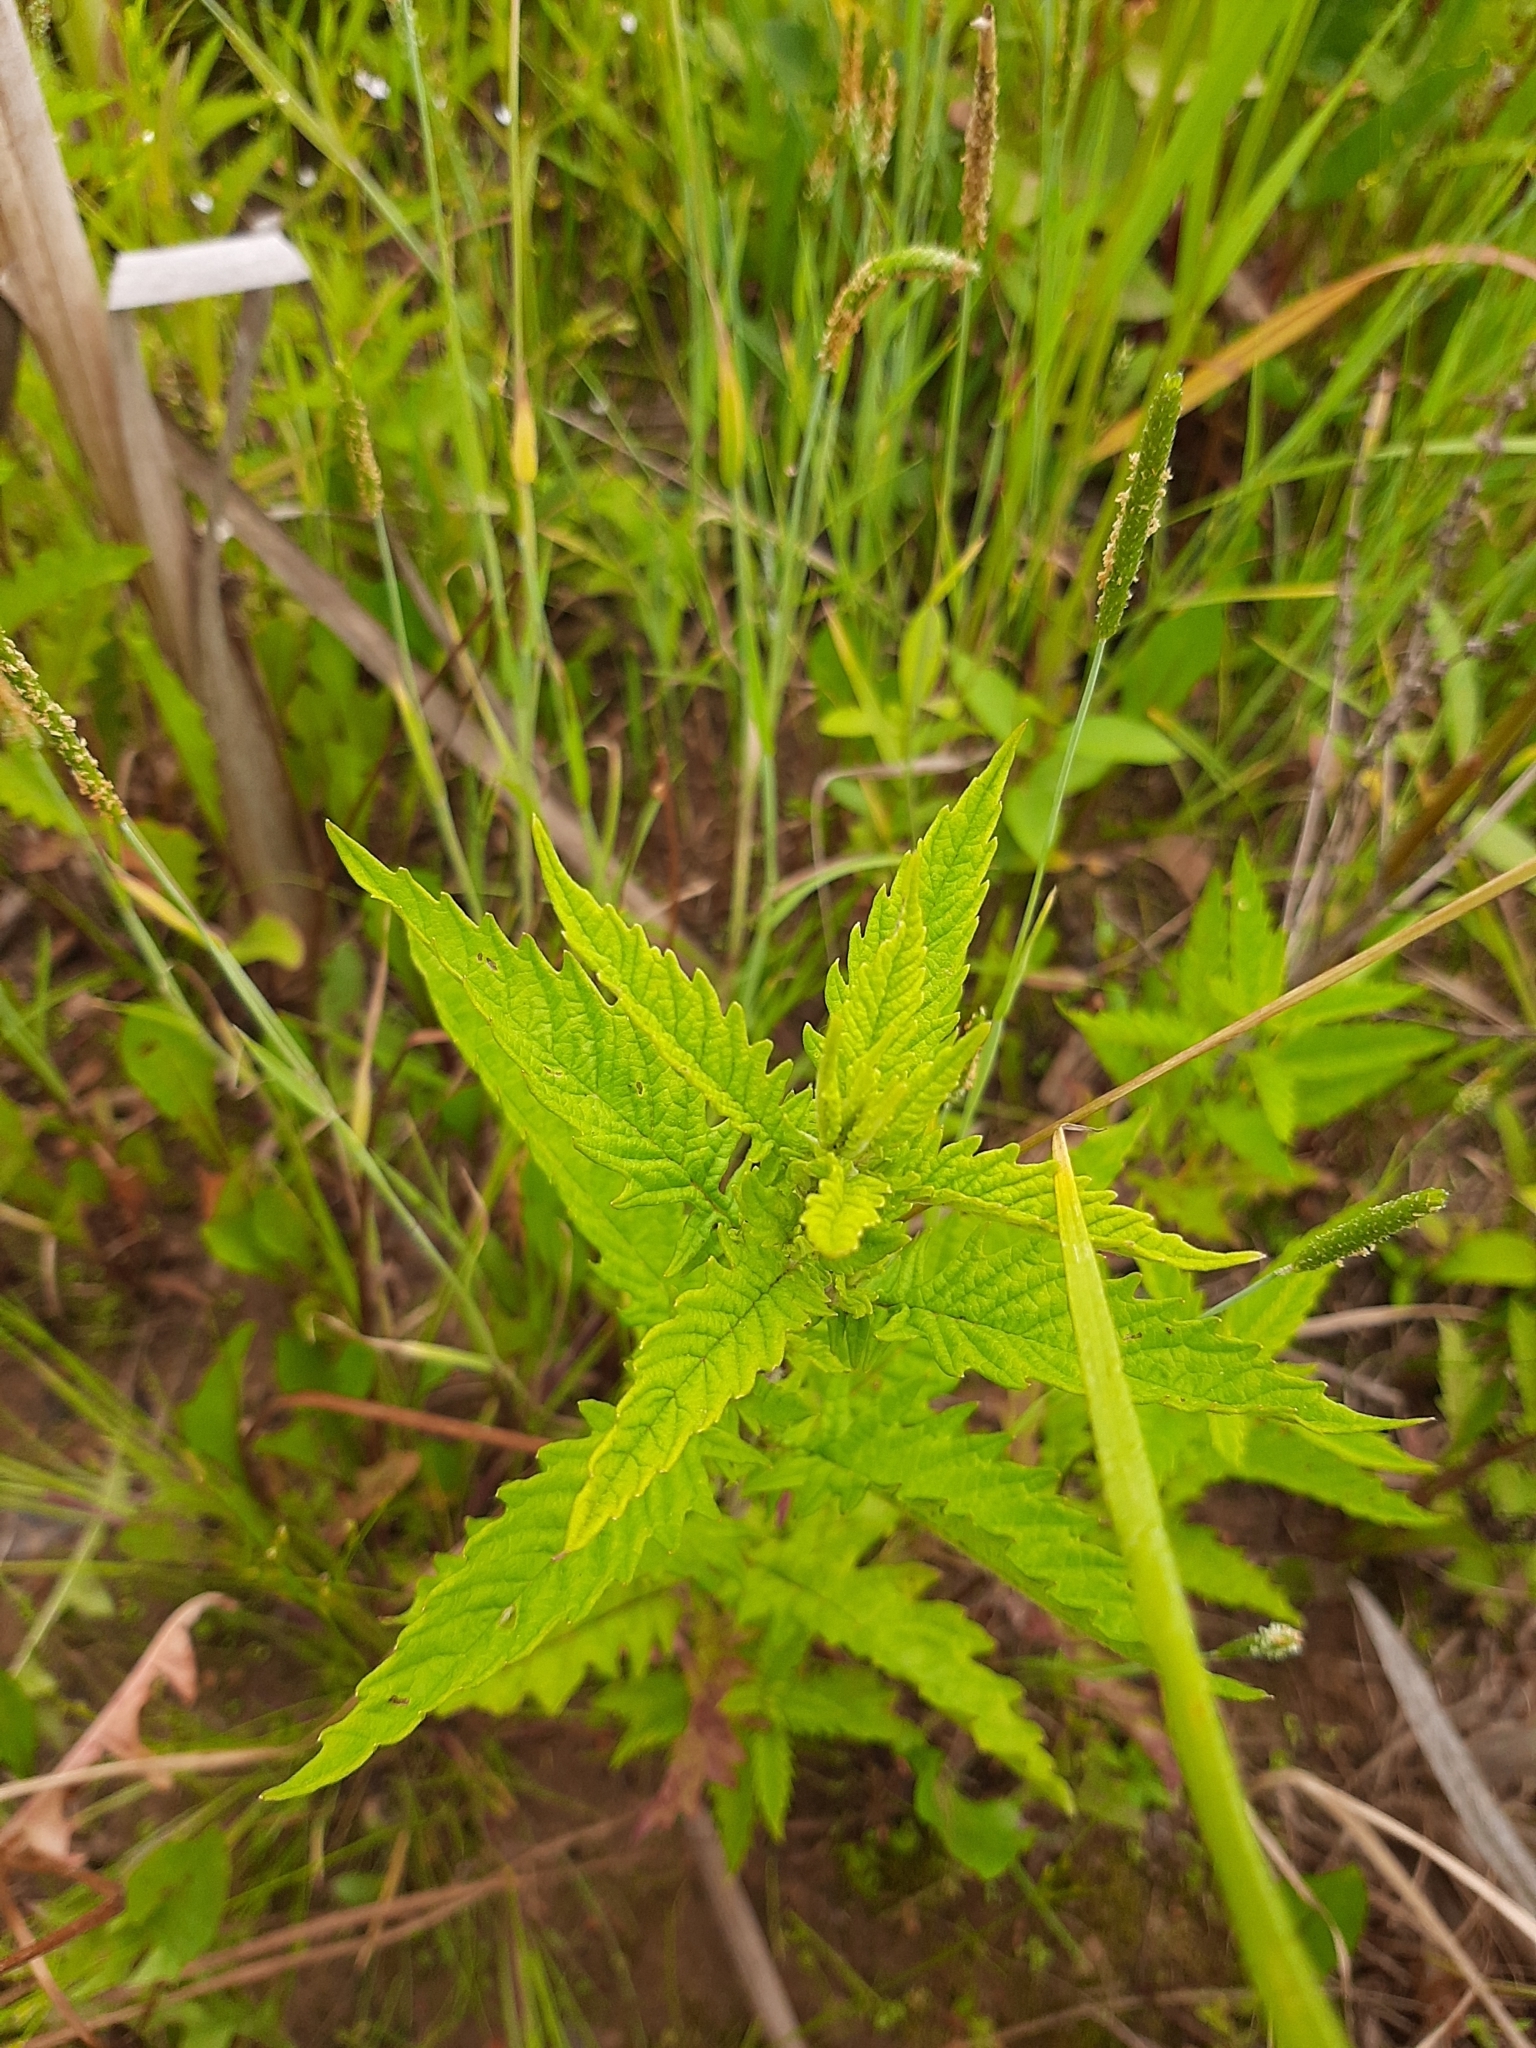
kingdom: Plantae
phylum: Tracheophyta
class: Magnoliopsida
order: Lamiales
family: Lamiaceae
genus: Lycopus
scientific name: Lycopus europaeus
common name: European bugleweed
